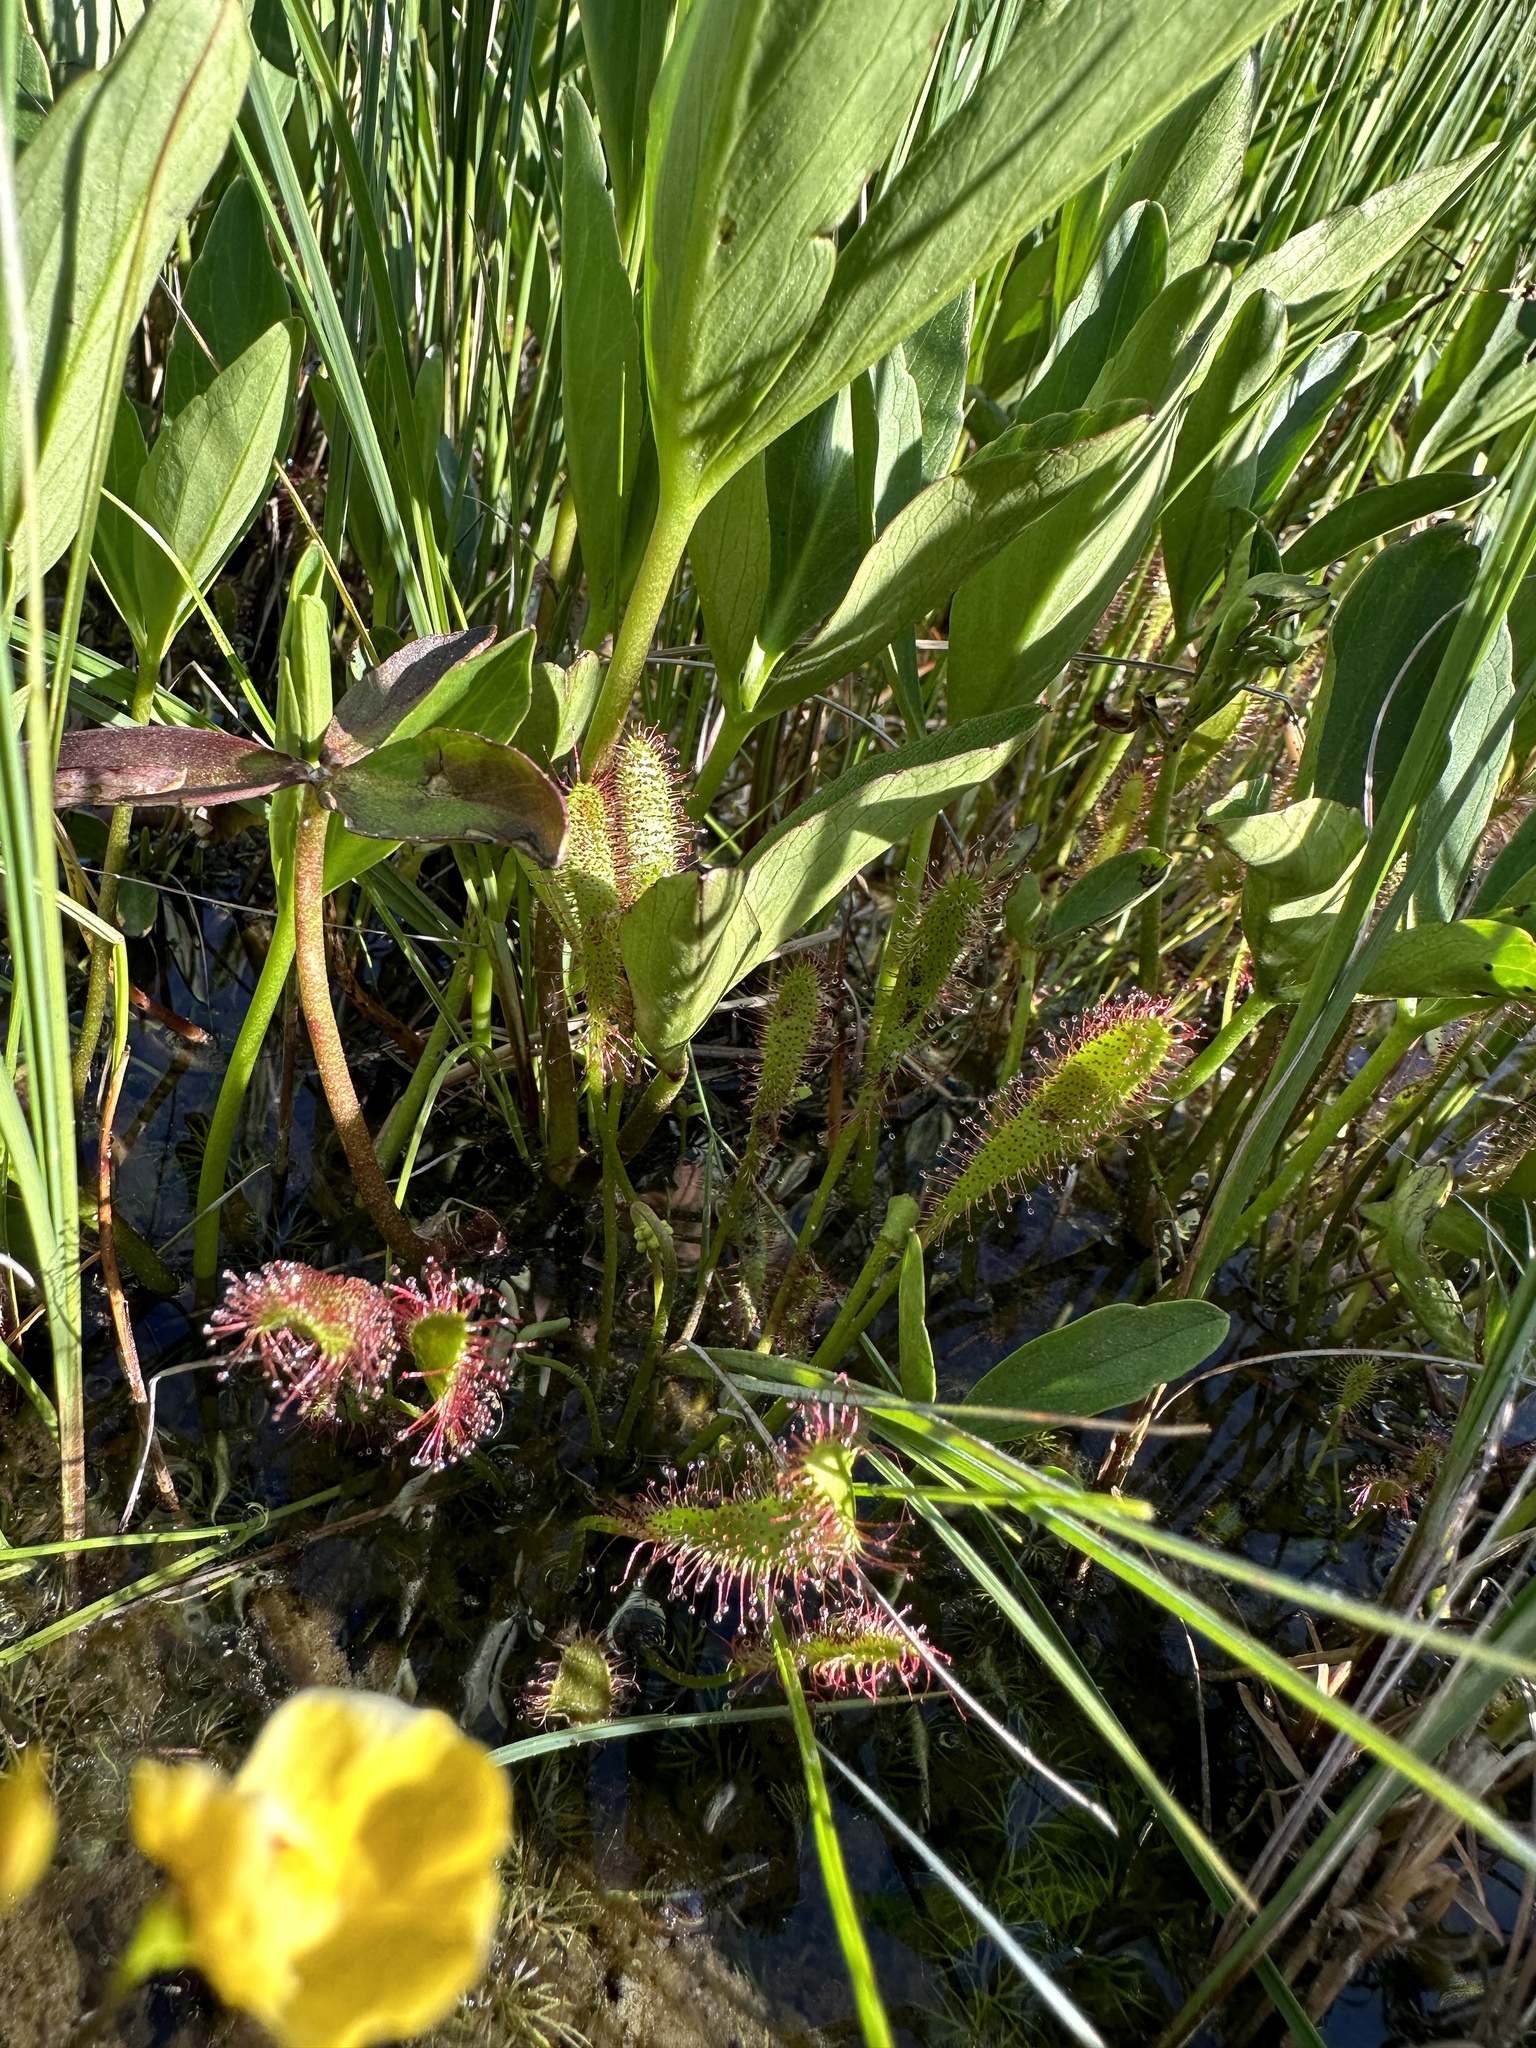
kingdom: Plantae
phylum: Tracheophyta
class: Magnoliopsida
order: Caryophyllales
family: Droseraceae
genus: Drosera
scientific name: Drosera anglica
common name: Great sundew
